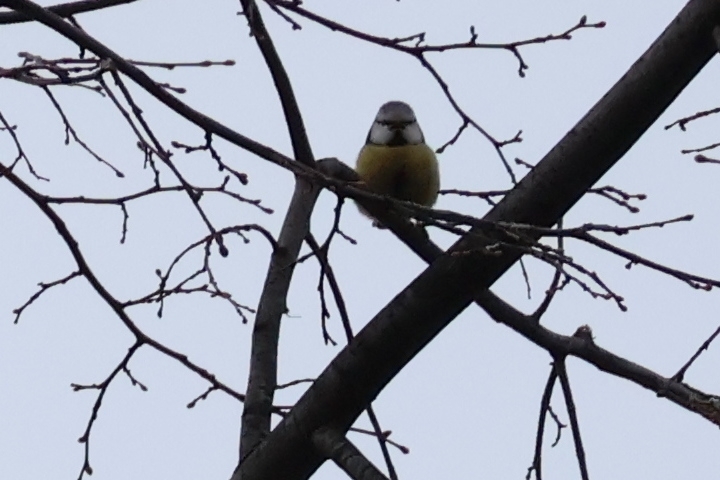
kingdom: Animalia
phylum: Chordata
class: Aves
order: Passeriformes
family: Paridae
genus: Cyanistes
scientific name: Cyanistes caeruleus
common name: Eurasian blue tit
